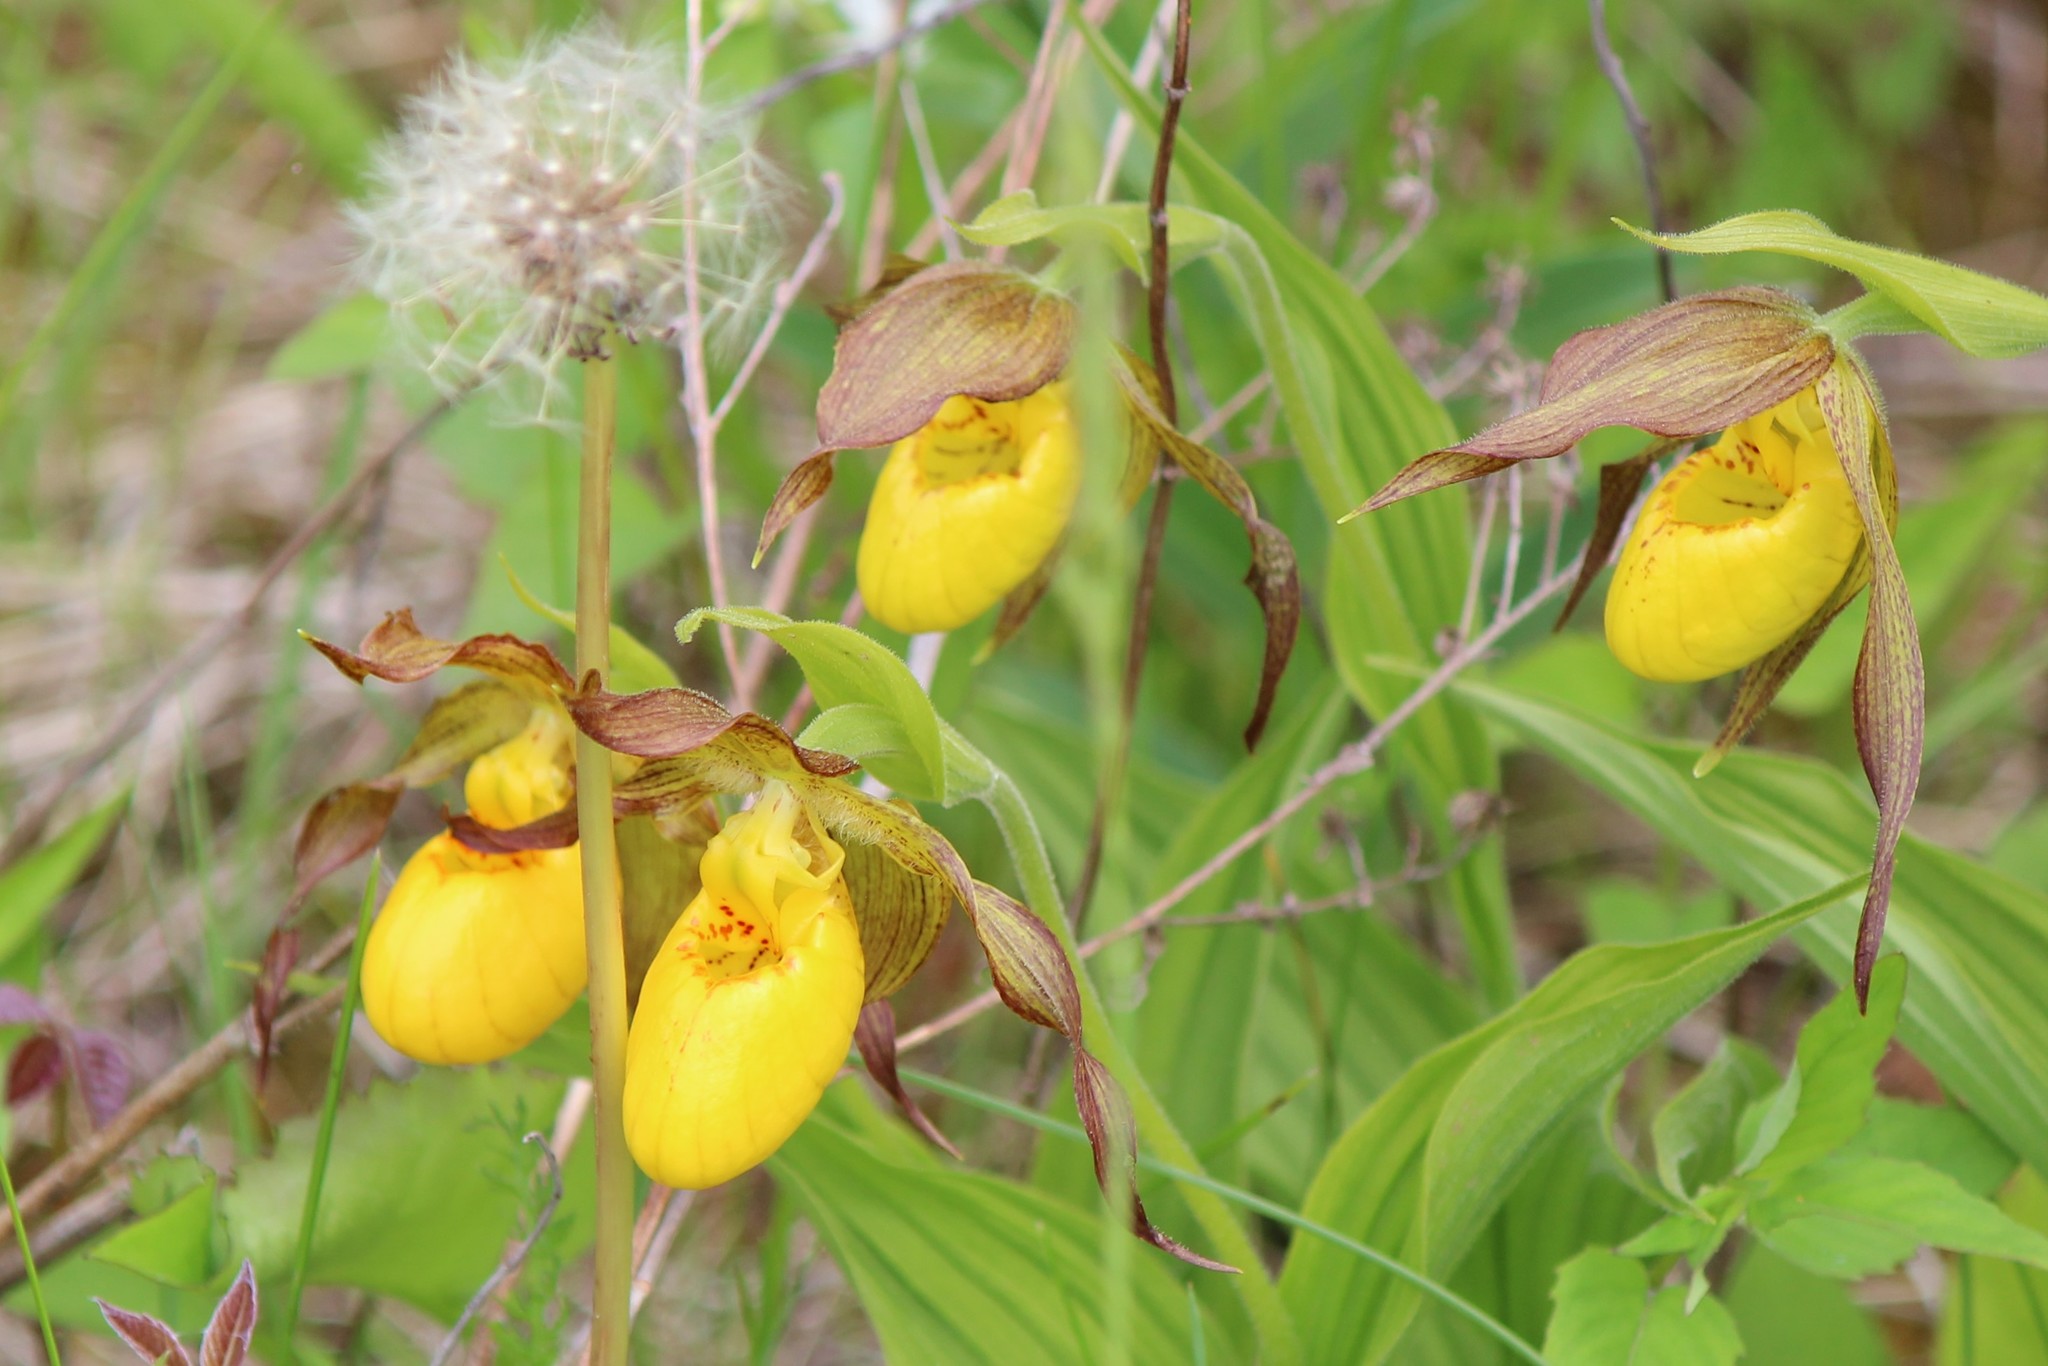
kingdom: Plantae
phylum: Tracheophyta
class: Liliopsida
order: Asparagales
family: Orchidaceae
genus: Cypripedium
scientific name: Cypripedium parviflorum
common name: American yellow lady's-slipper
